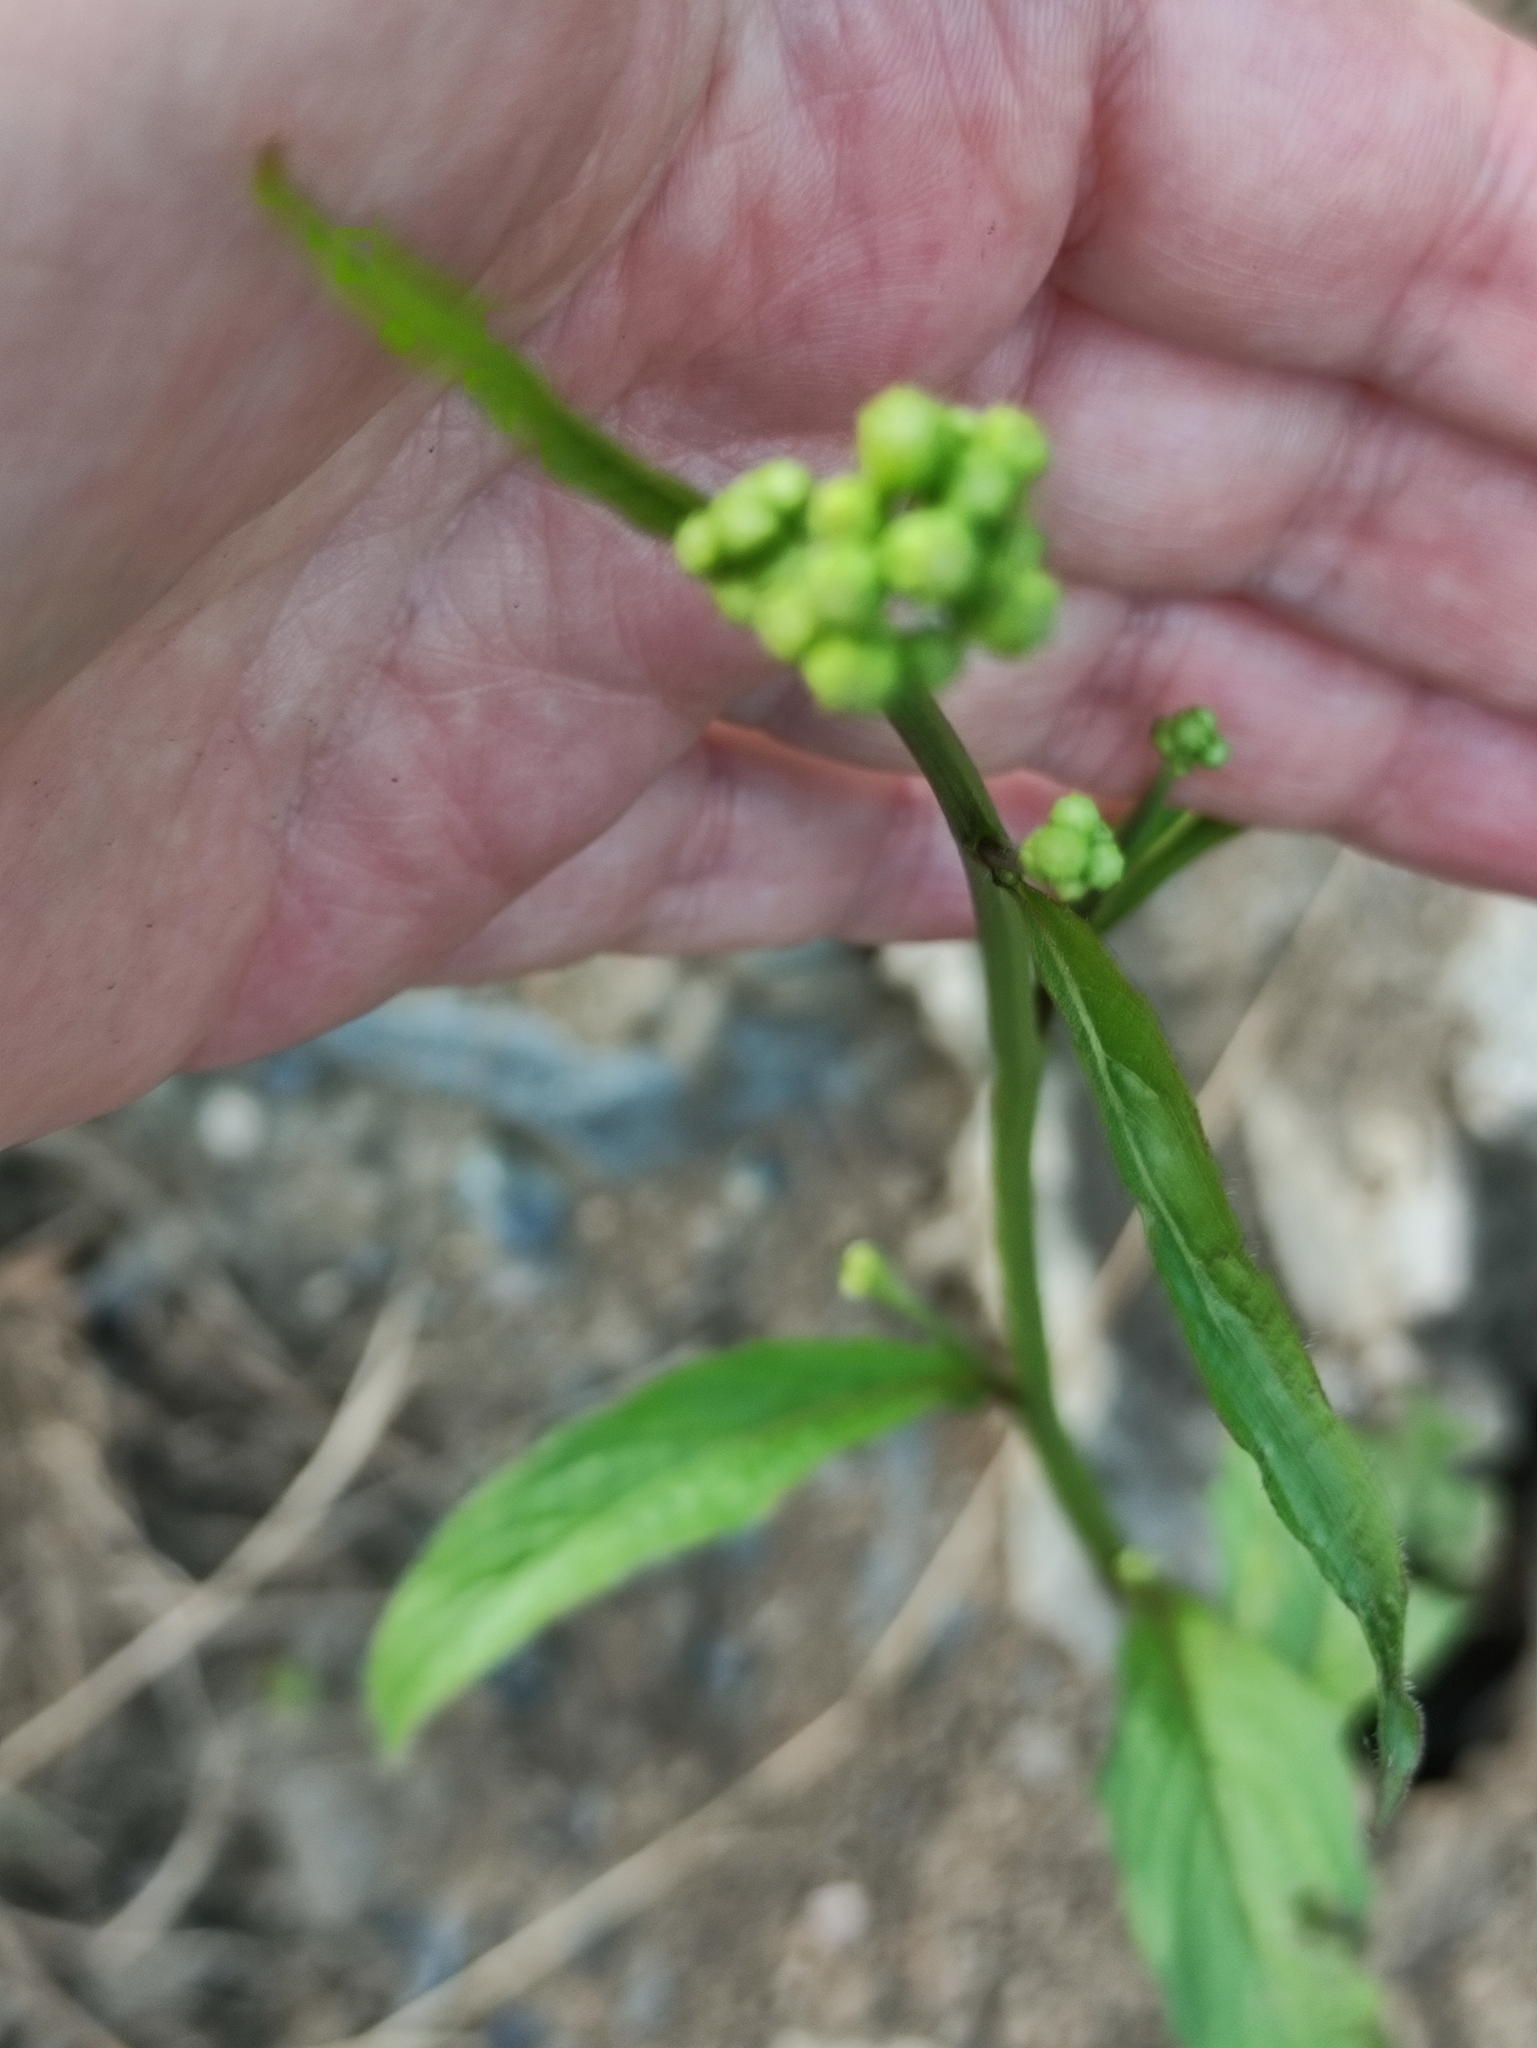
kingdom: Plantae
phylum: Tracheophyta
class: Magnoliopsida
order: Asterales
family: Asteraceae
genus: Lapsana
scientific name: Lapsana communis
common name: Nipplewort
